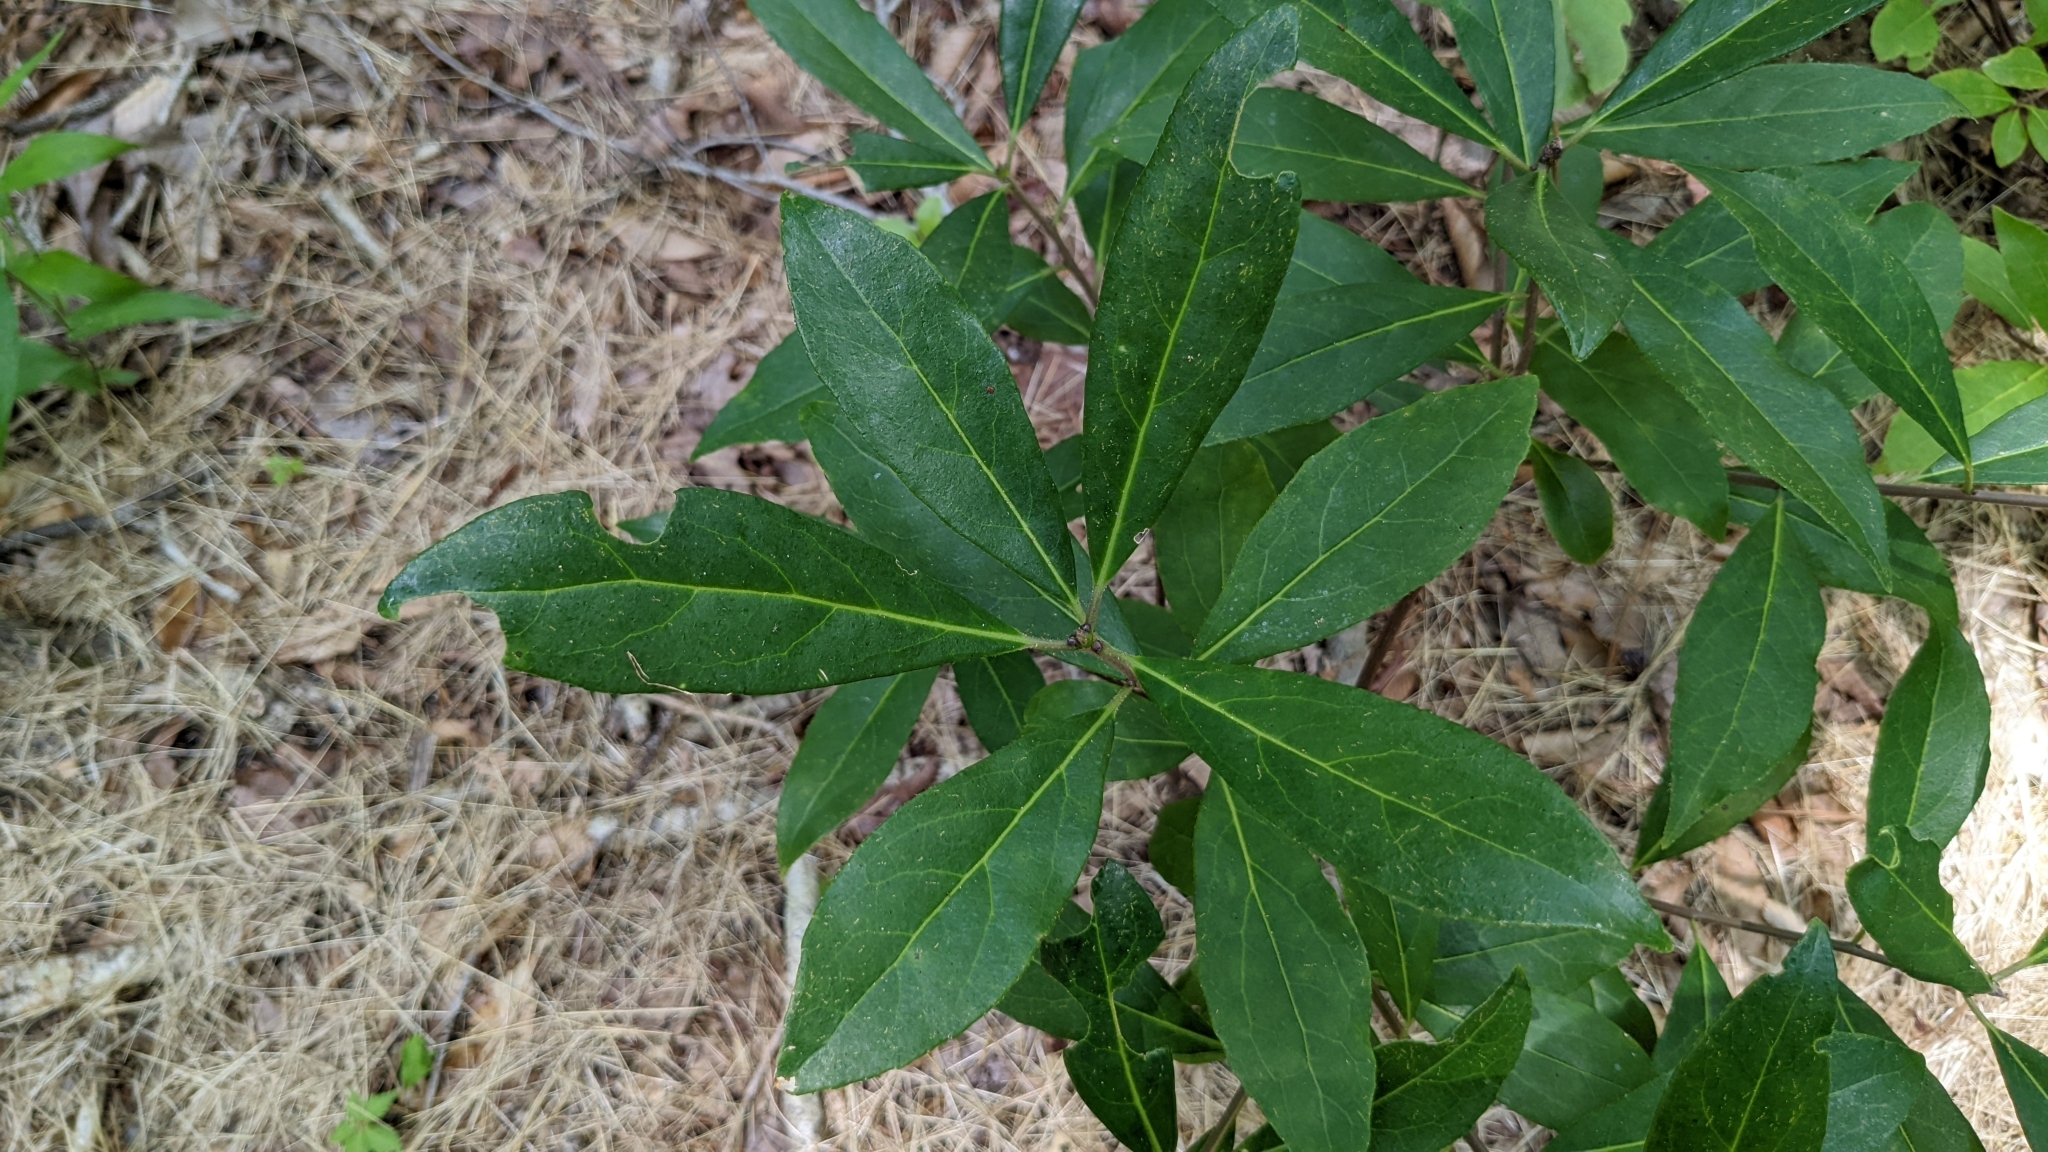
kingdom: Plantae
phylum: Tracheophyta
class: Magnoliopsida
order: Ericales
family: Symplocaceae
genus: Symplocos
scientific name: Symplocos tinctoria
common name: Horse-sugar
